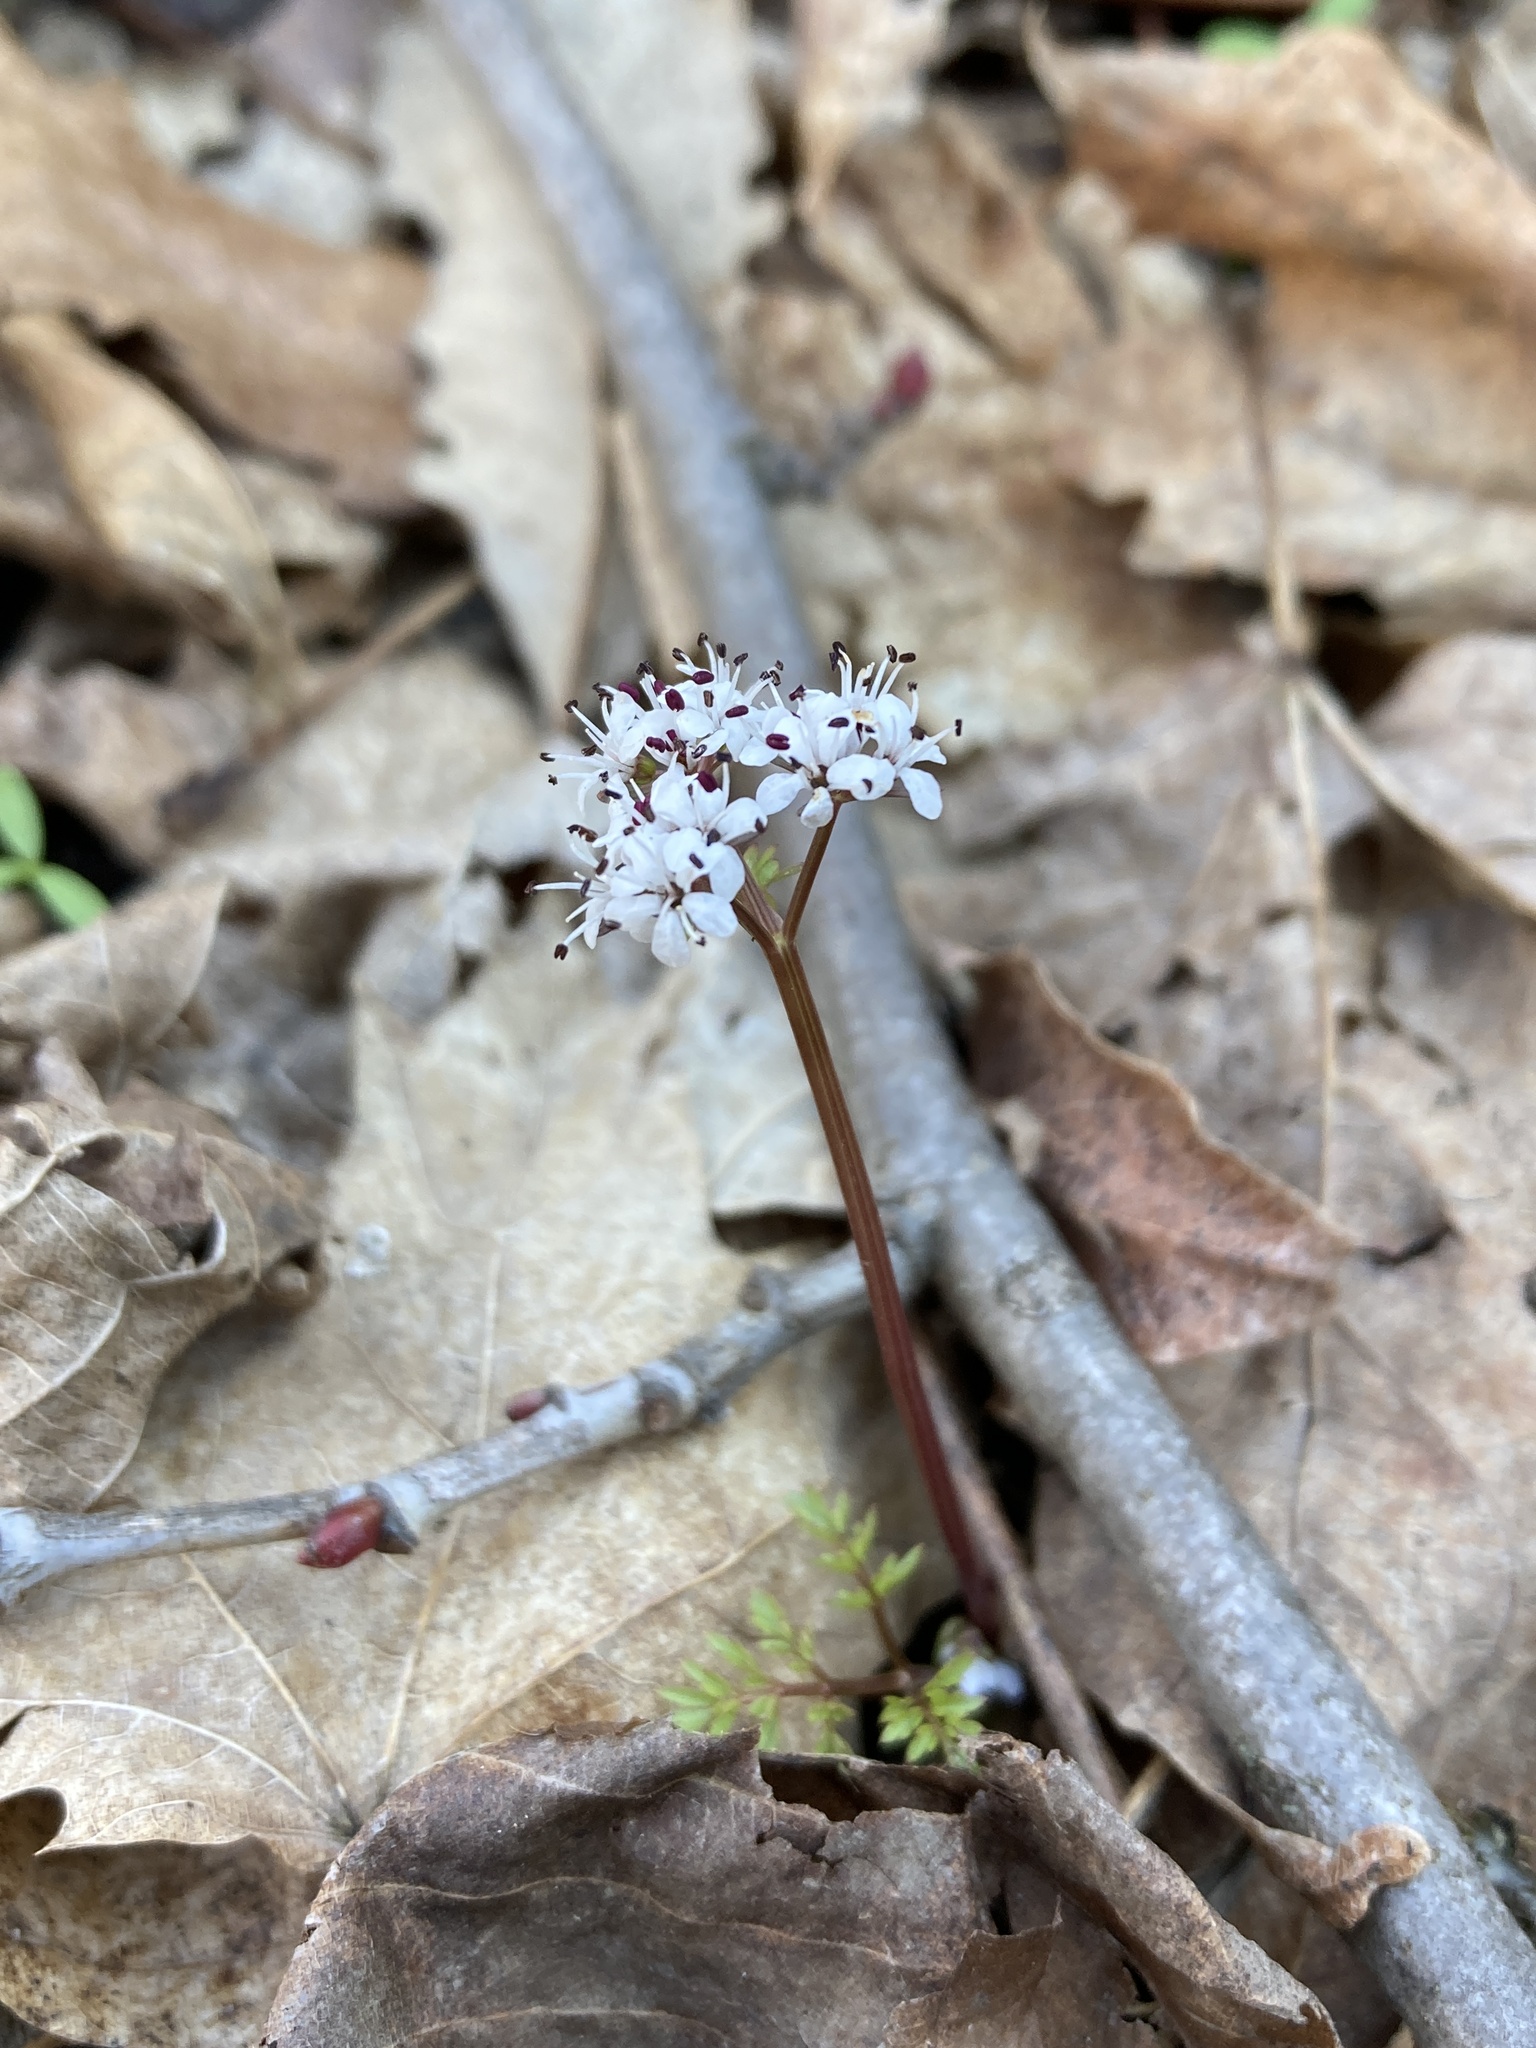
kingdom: Plantae
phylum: Tracheophyta
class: Magnoliopsida
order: Apiales
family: Apiaceae
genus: Erigenia
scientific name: Erigenia bulbosa
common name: Pepper-and-salt
